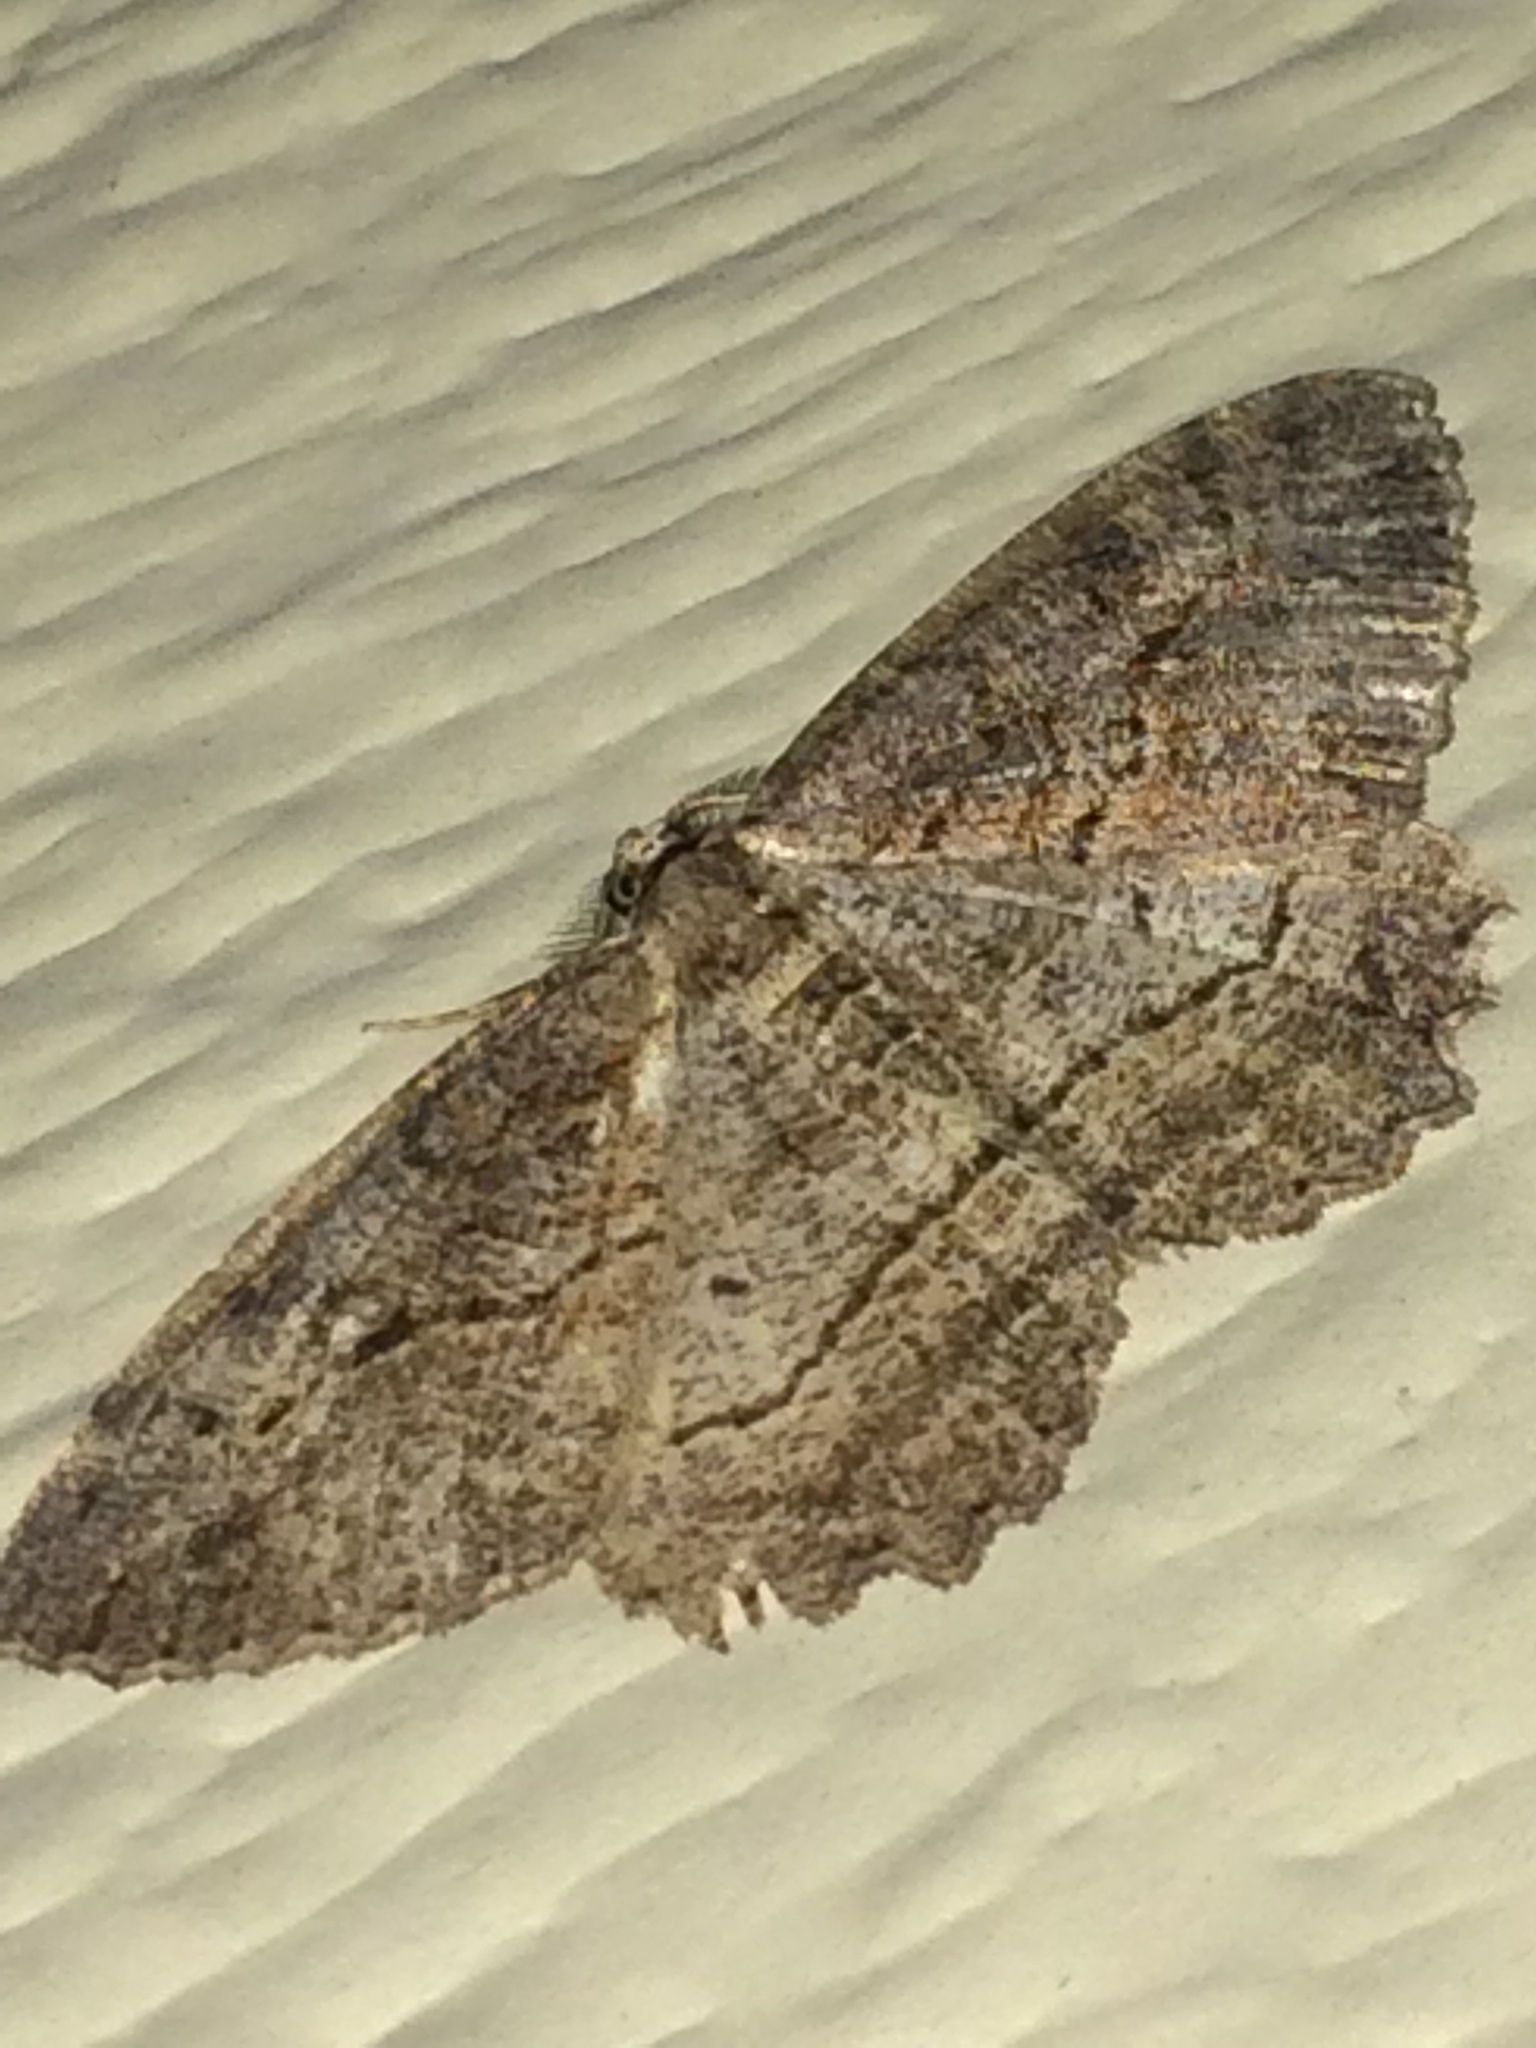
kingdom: Animalia
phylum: Arthropoda
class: Insecta
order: Lepidoptera
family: Geometridae
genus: Neoalcis
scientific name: Neoalcis californiaria
